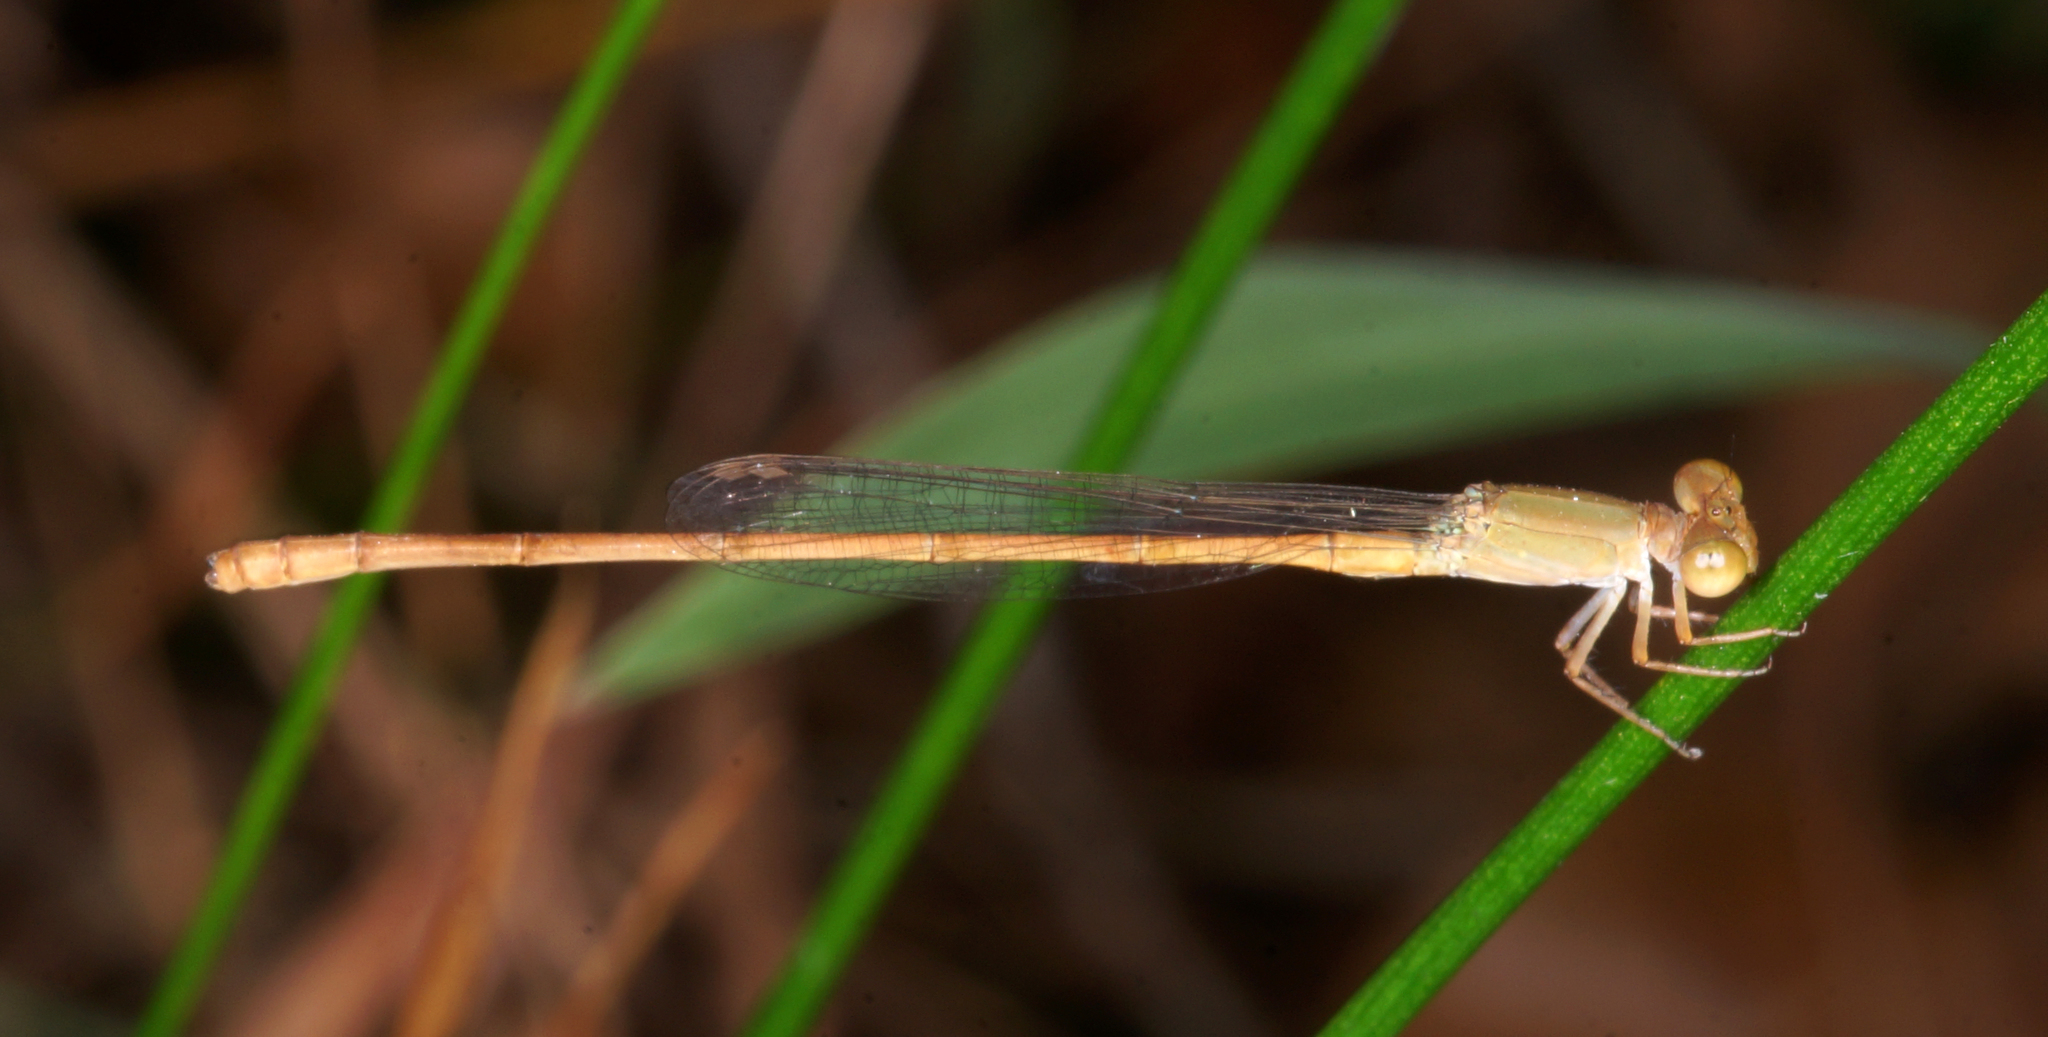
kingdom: Animalia
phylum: Arthropoda
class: Insecta
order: Odonata
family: Coenagrionidae
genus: Ceriagrion
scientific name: Ceriagrion olivaceum
